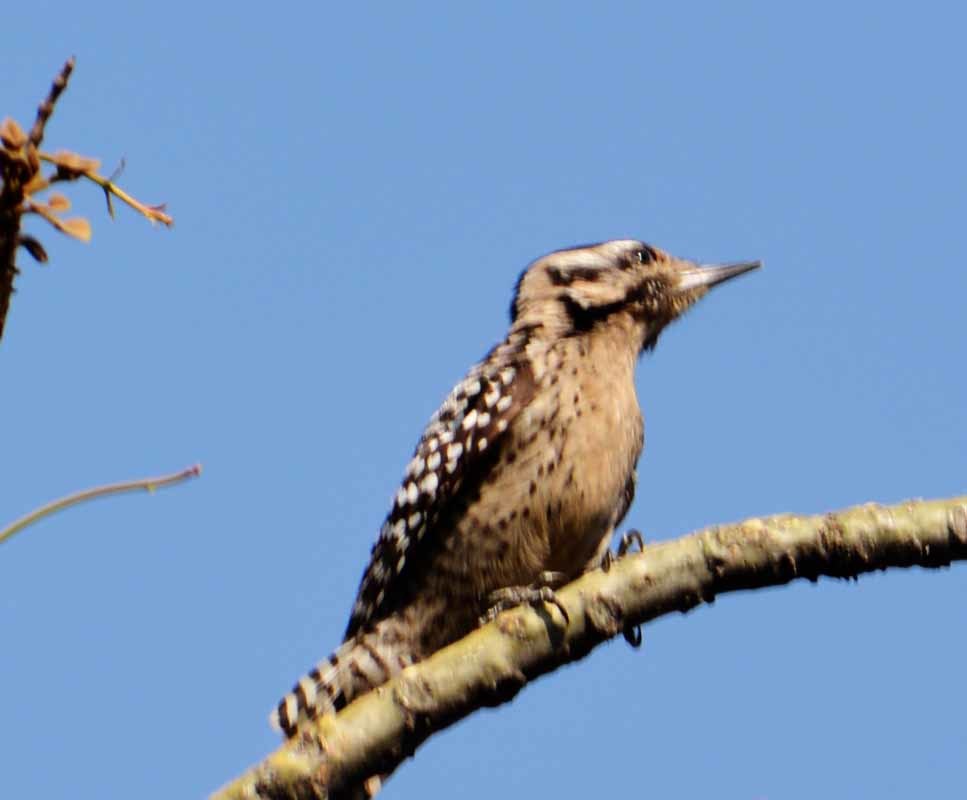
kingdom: Animalia
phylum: Chordata
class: Aves
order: Piciformes
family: Picidae
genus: Dryobates
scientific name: Dryobates scalaris
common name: Ladder-backed woodpecker
